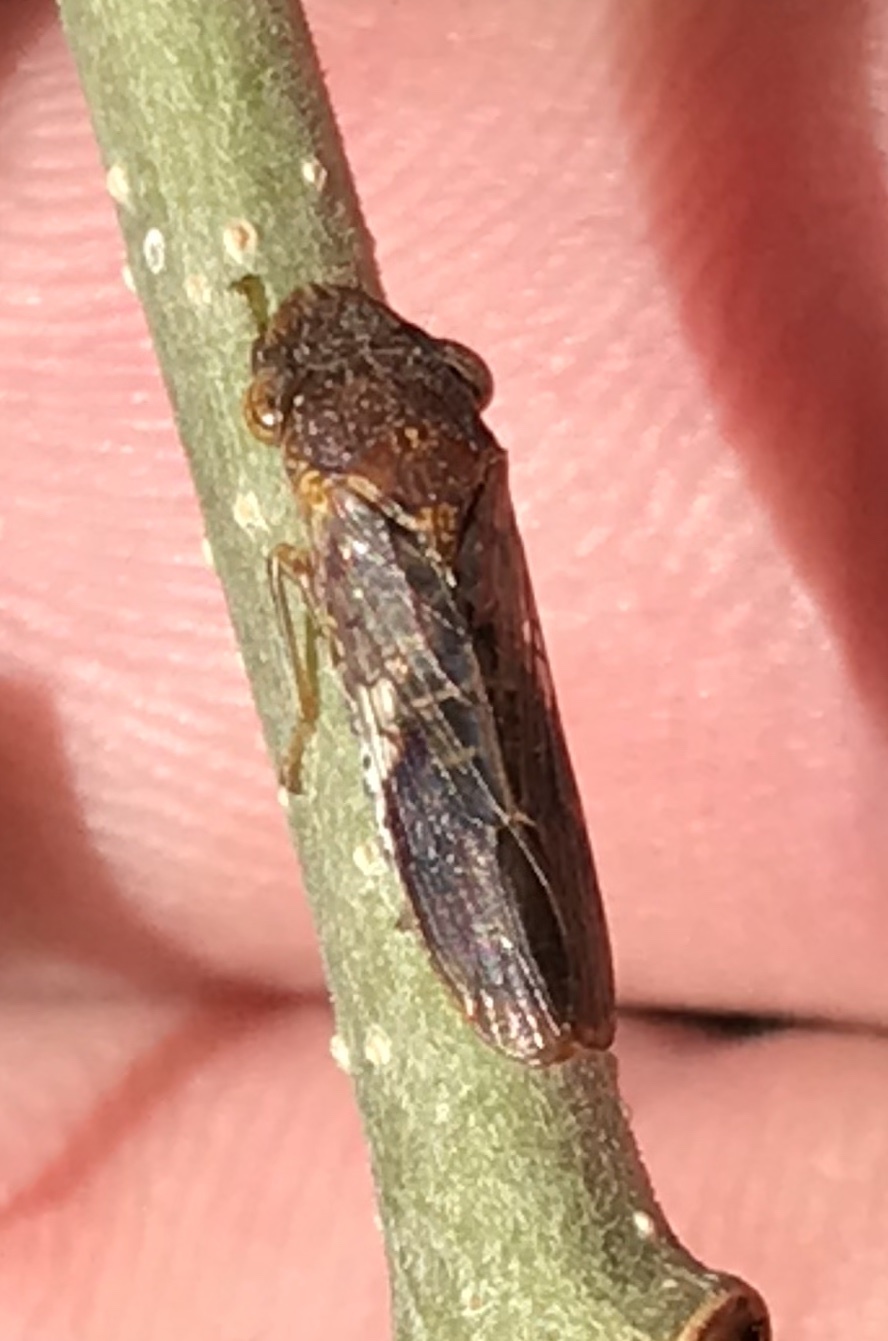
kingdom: Animalia
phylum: Arthropoda
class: Insecta
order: Hemiptera
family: Cicadellidae
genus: Homalodisca
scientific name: Homalodisca vitripennis
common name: Glassy-winged sharpshooter
